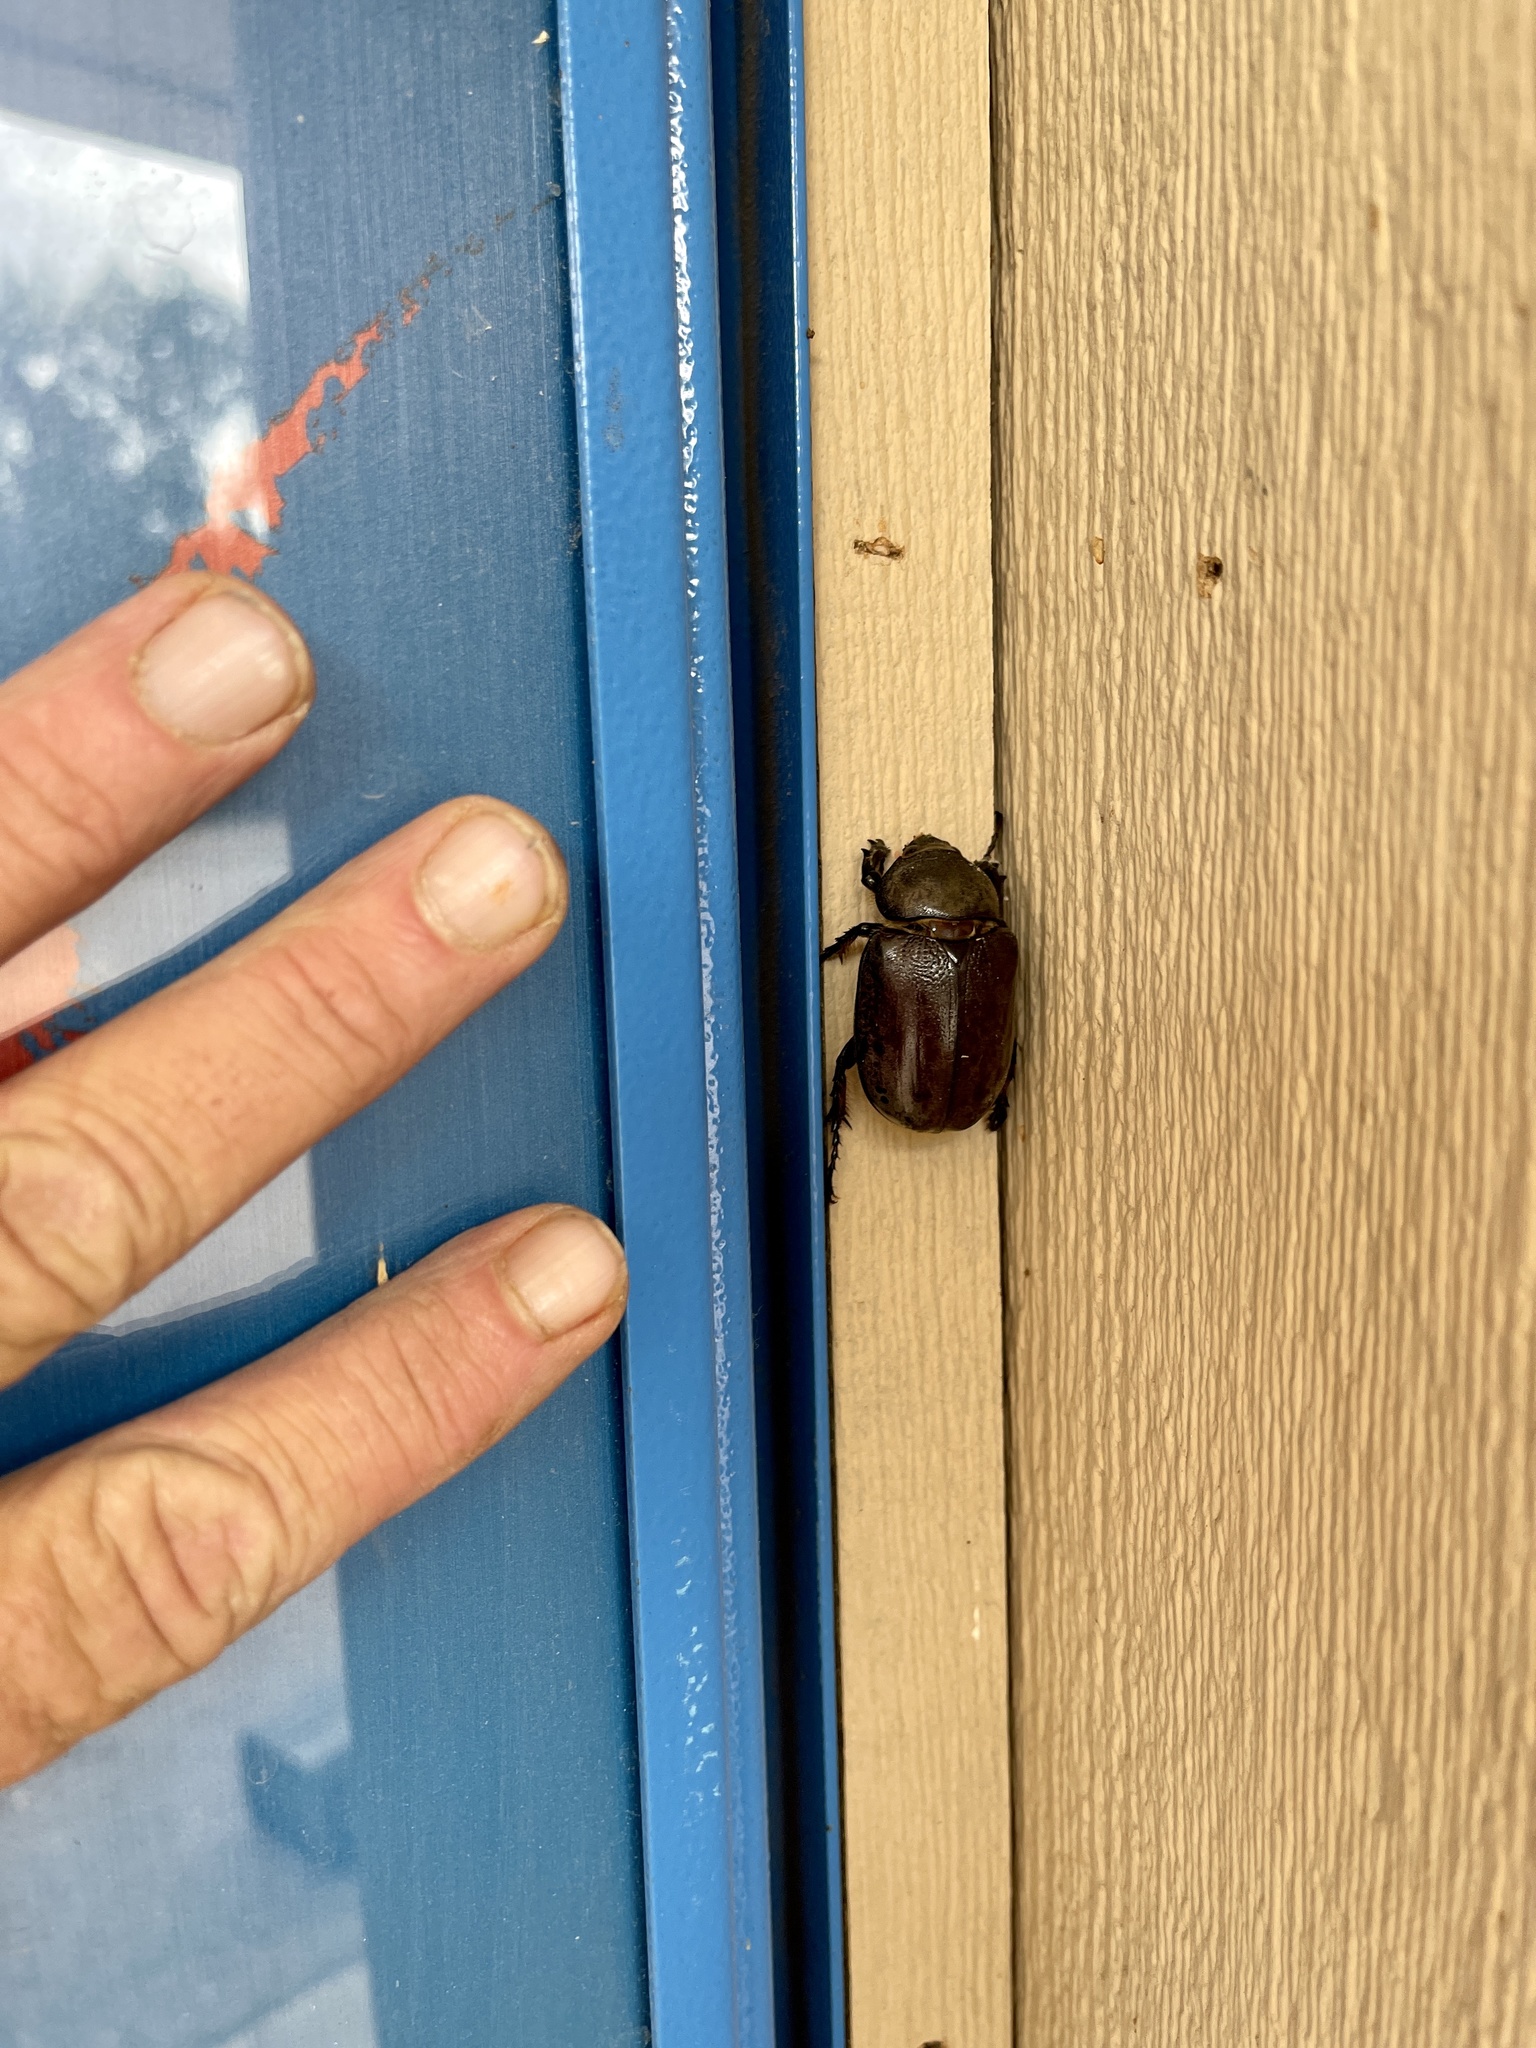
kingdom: Animalia
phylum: Arthropoda
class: Insecta
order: Coleoptera
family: Scarabaeidae
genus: Dynastes
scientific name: Dynastes grantii
